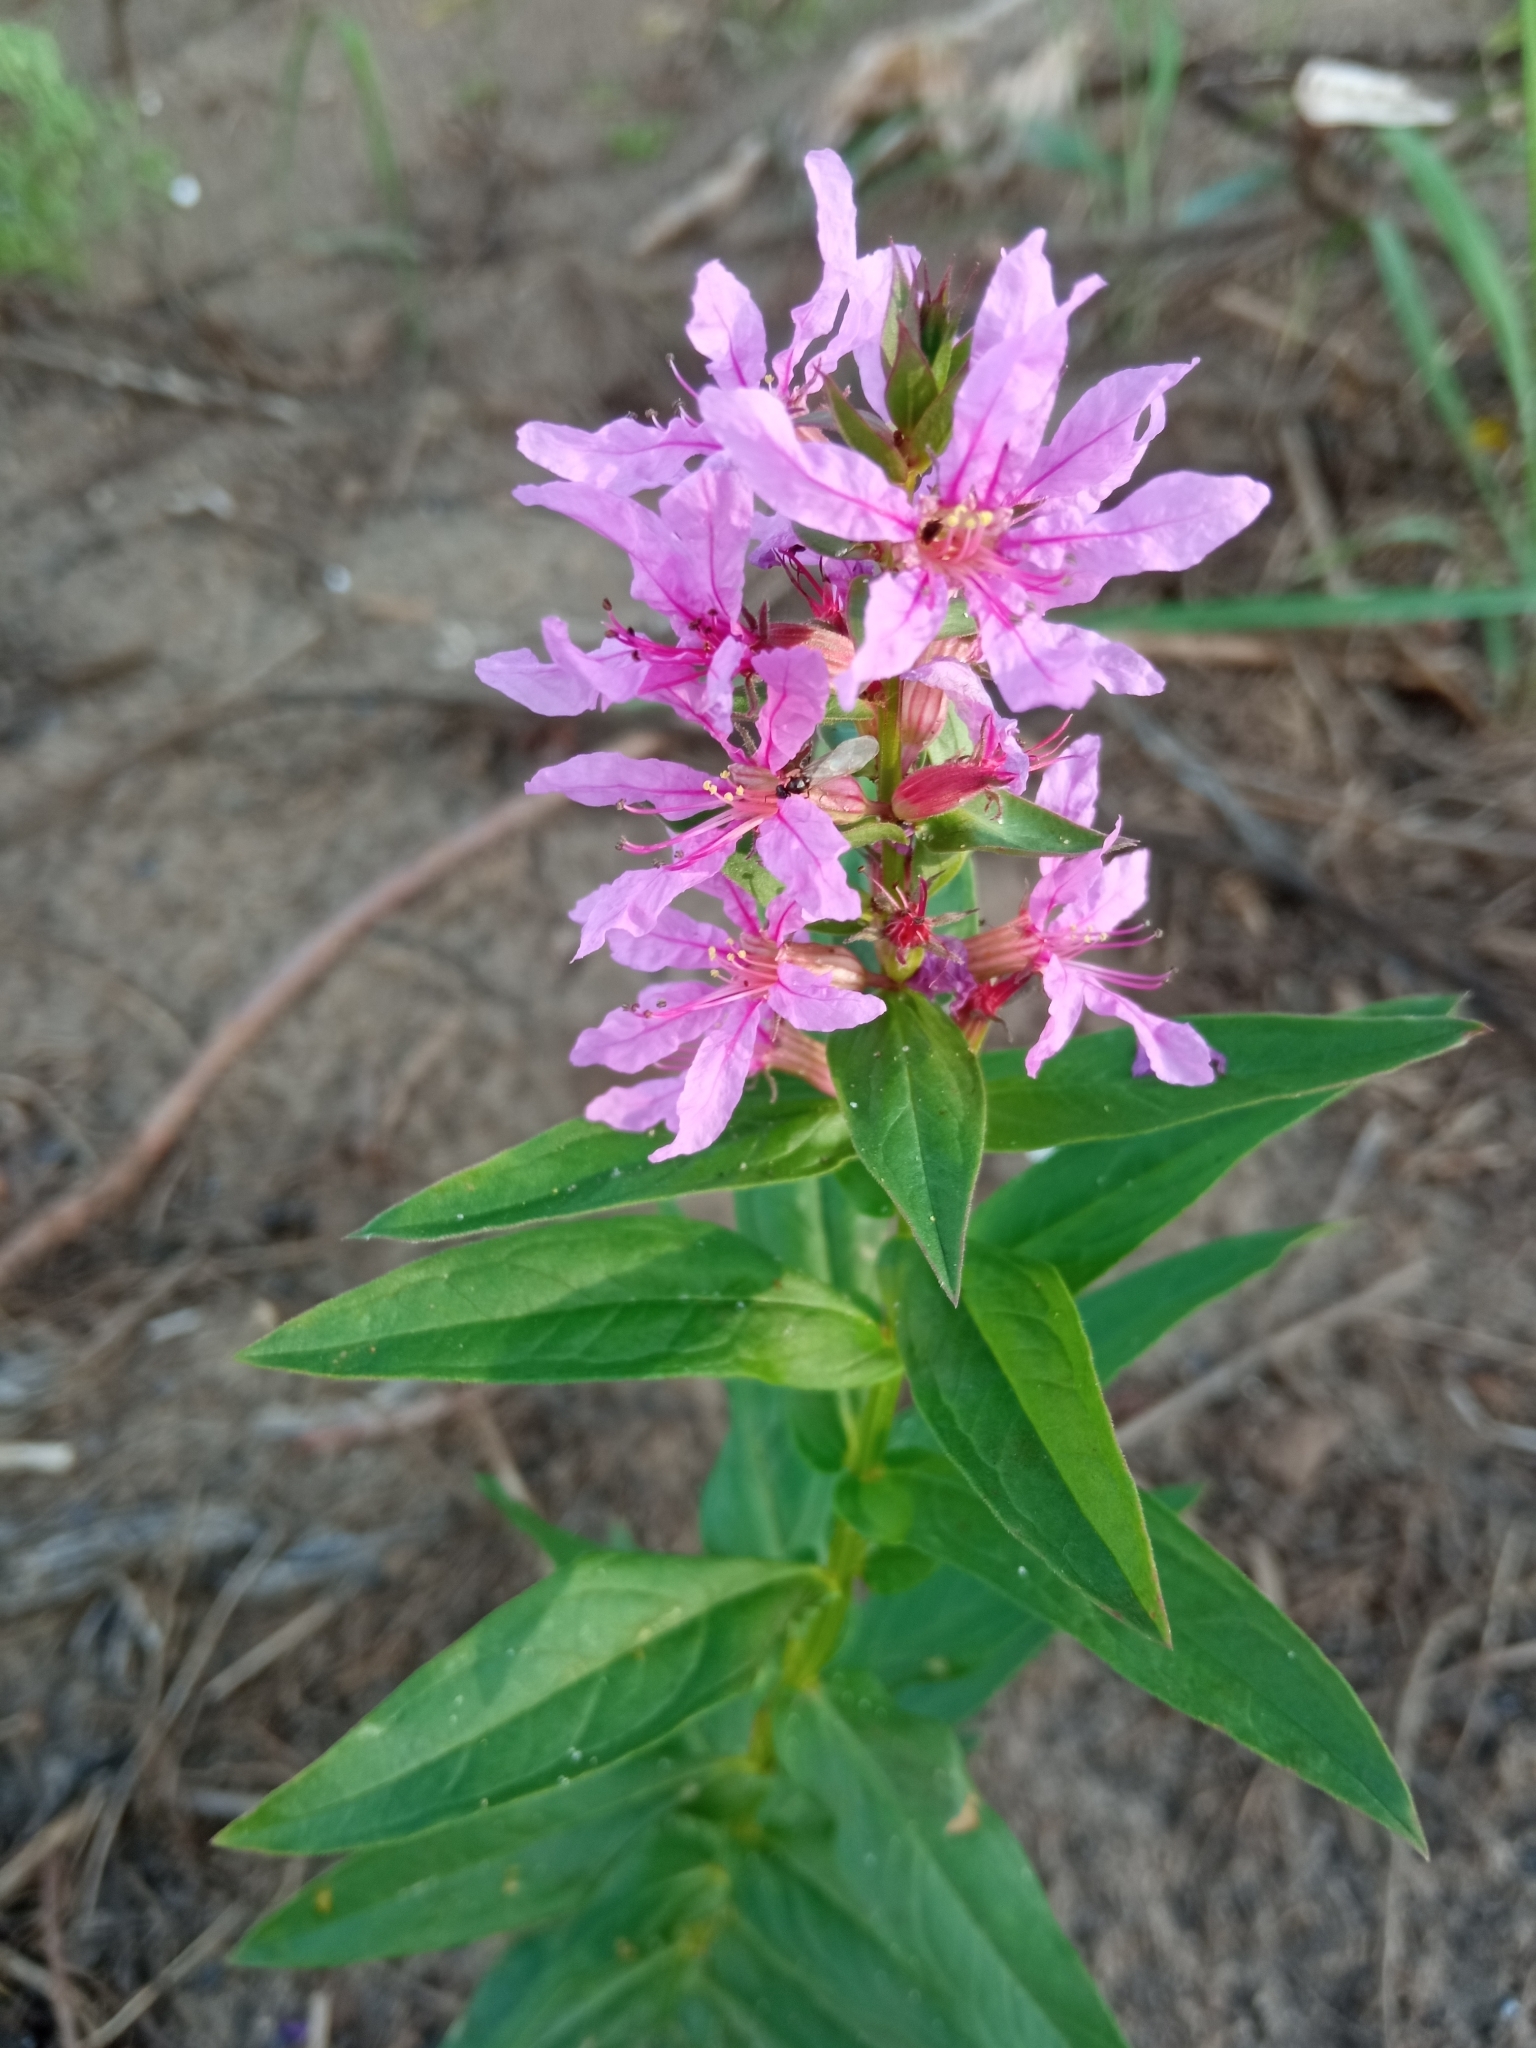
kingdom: Plantae
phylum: Tracheophyta
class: Magnoliopsida
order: Myrtales
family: Lythraceae
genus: Lythrum
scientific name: Lythrum salicaria
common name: Purple loosestrife
